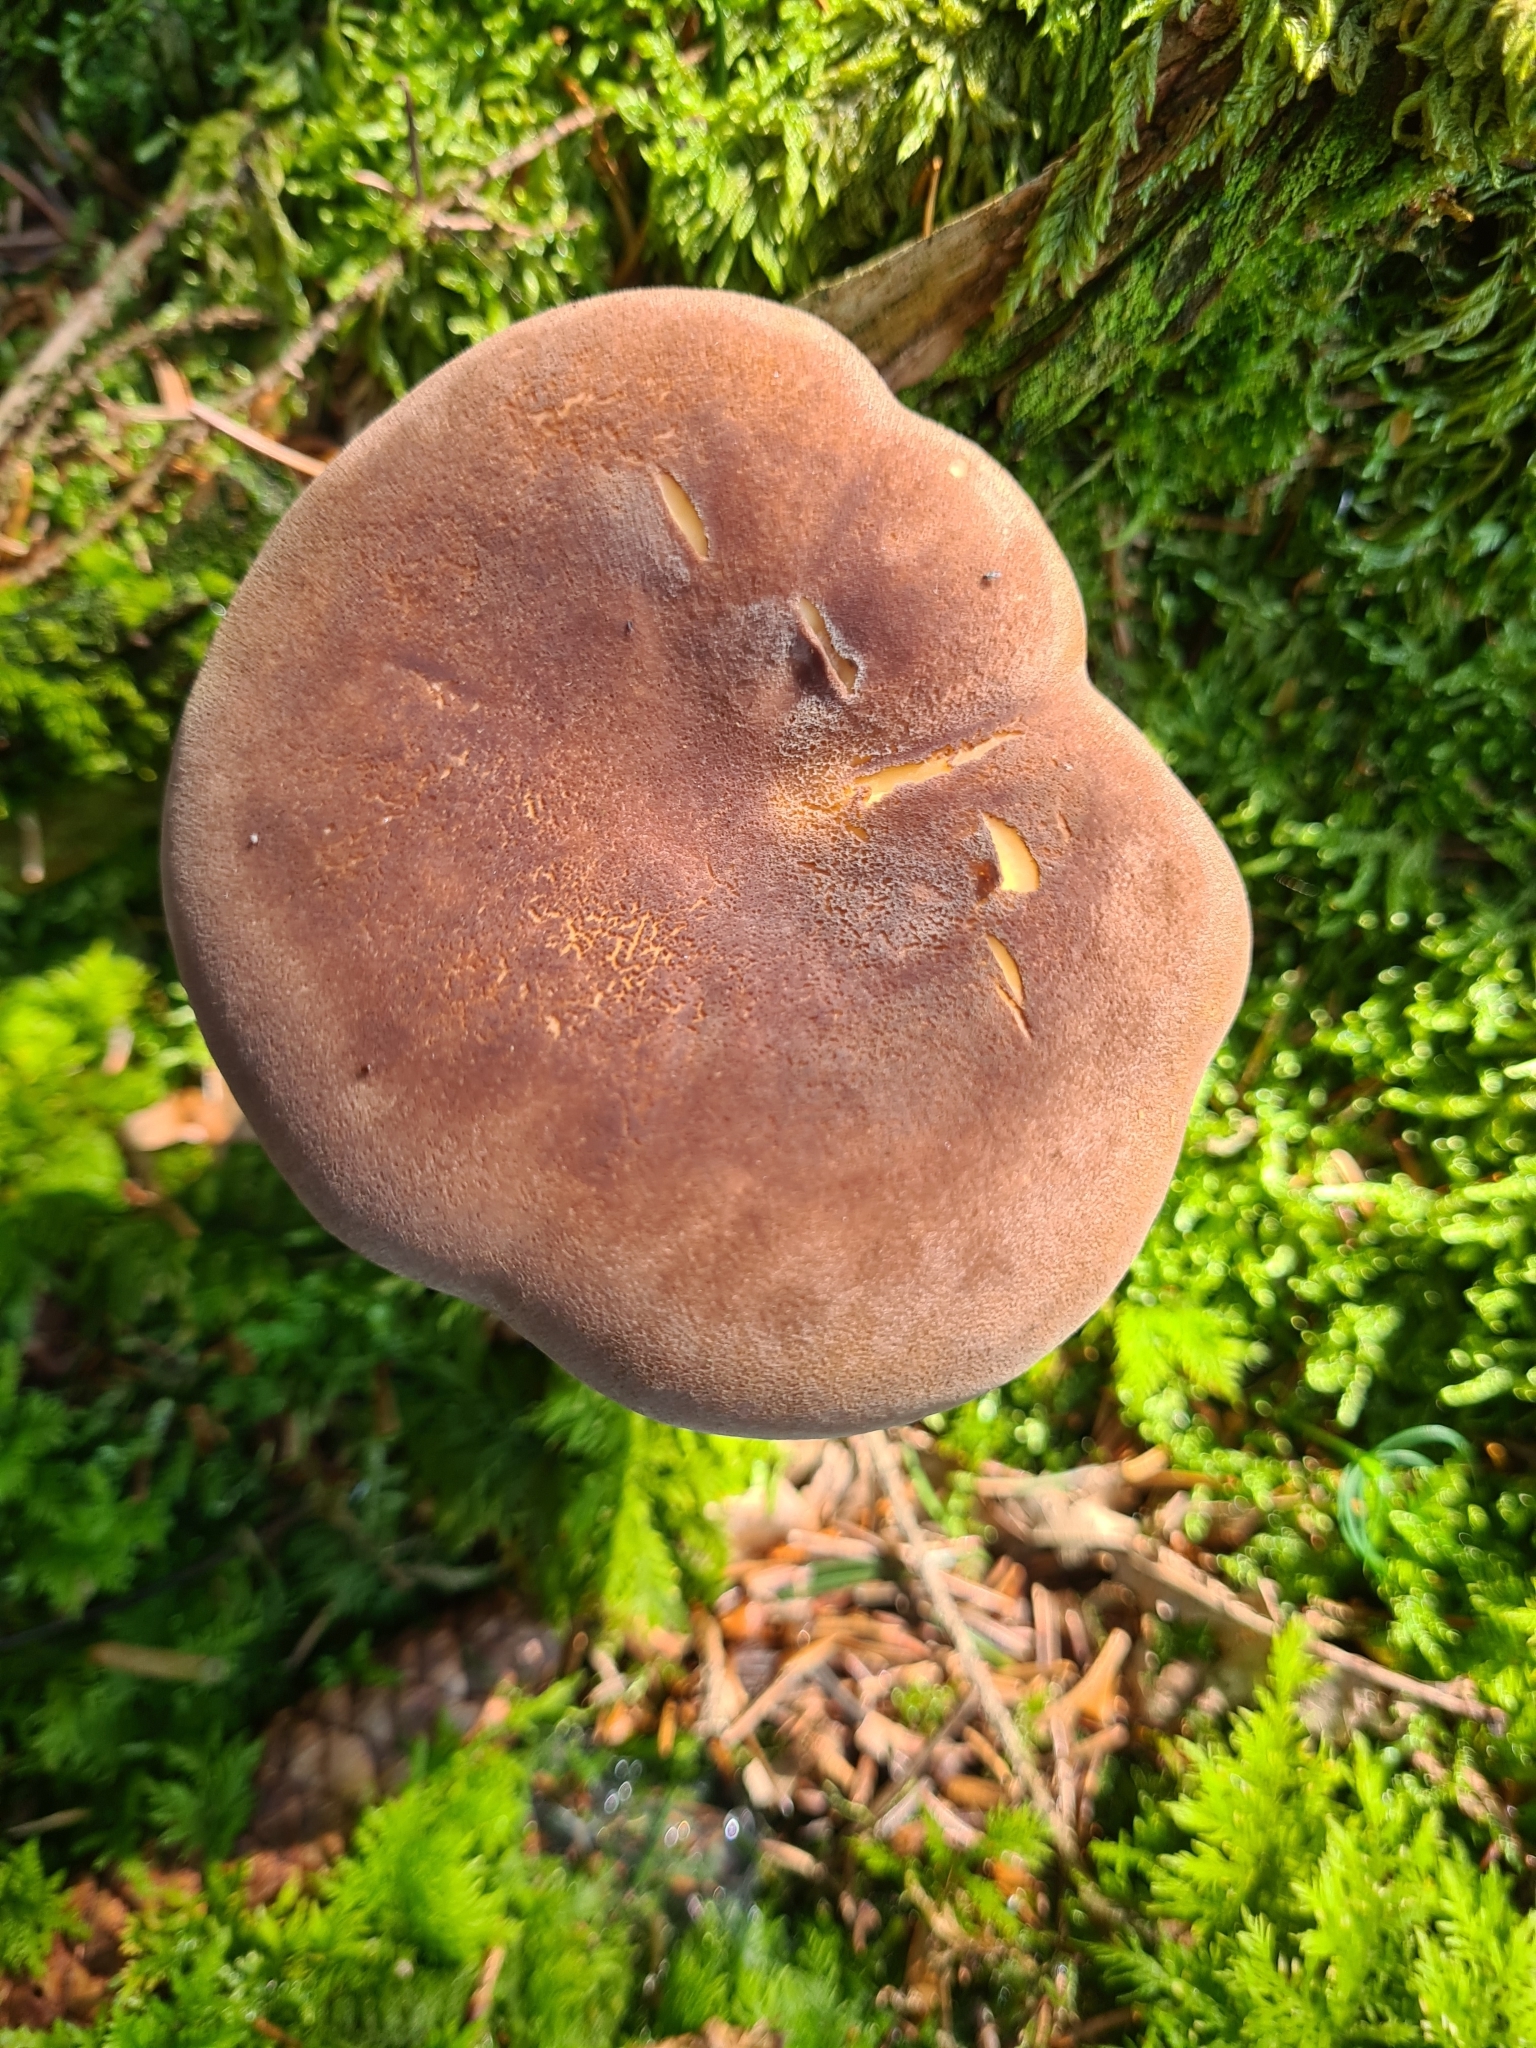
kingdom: Fungi
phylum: Basidiomycota
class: Agaricomycetes
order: Boletales
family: Tapinellaceae
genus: Tapinella
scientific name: Tapinella atrotomentosa
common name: Velvet rollrim
